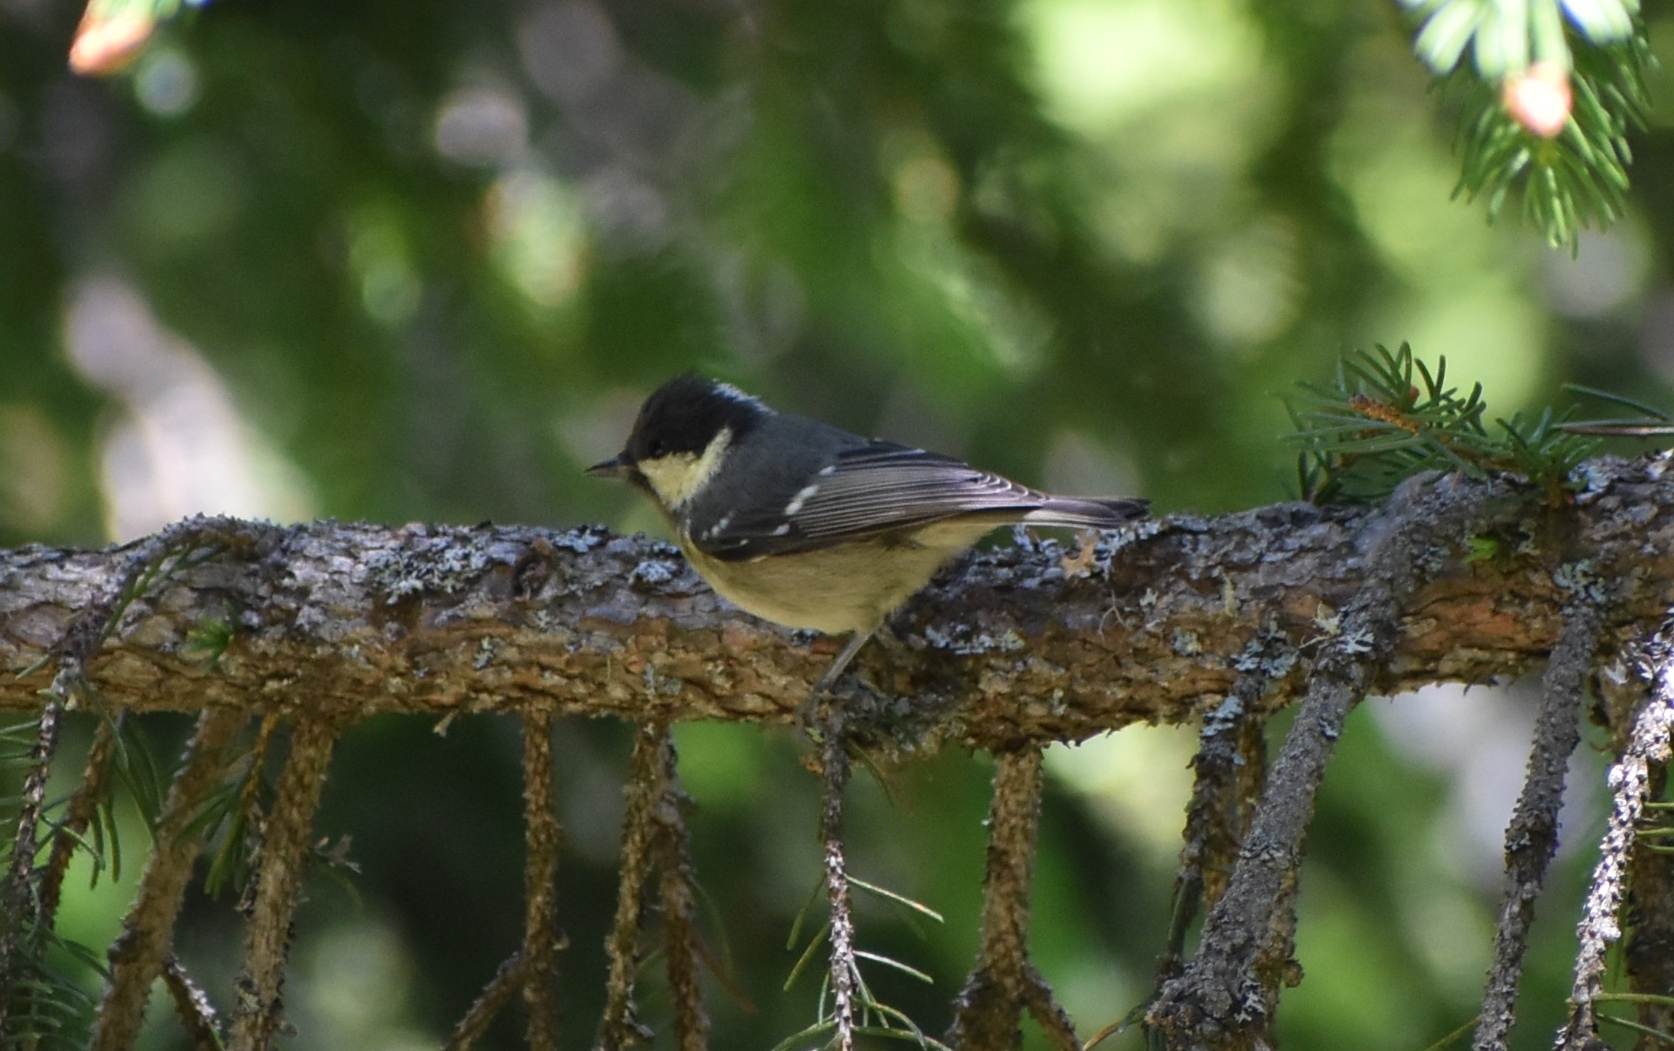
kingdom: Animalia
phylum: Chordata
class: Aves
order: Passeriformes
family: Paridae
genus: Periparus
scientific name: Periparus ater
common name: Coal tit
